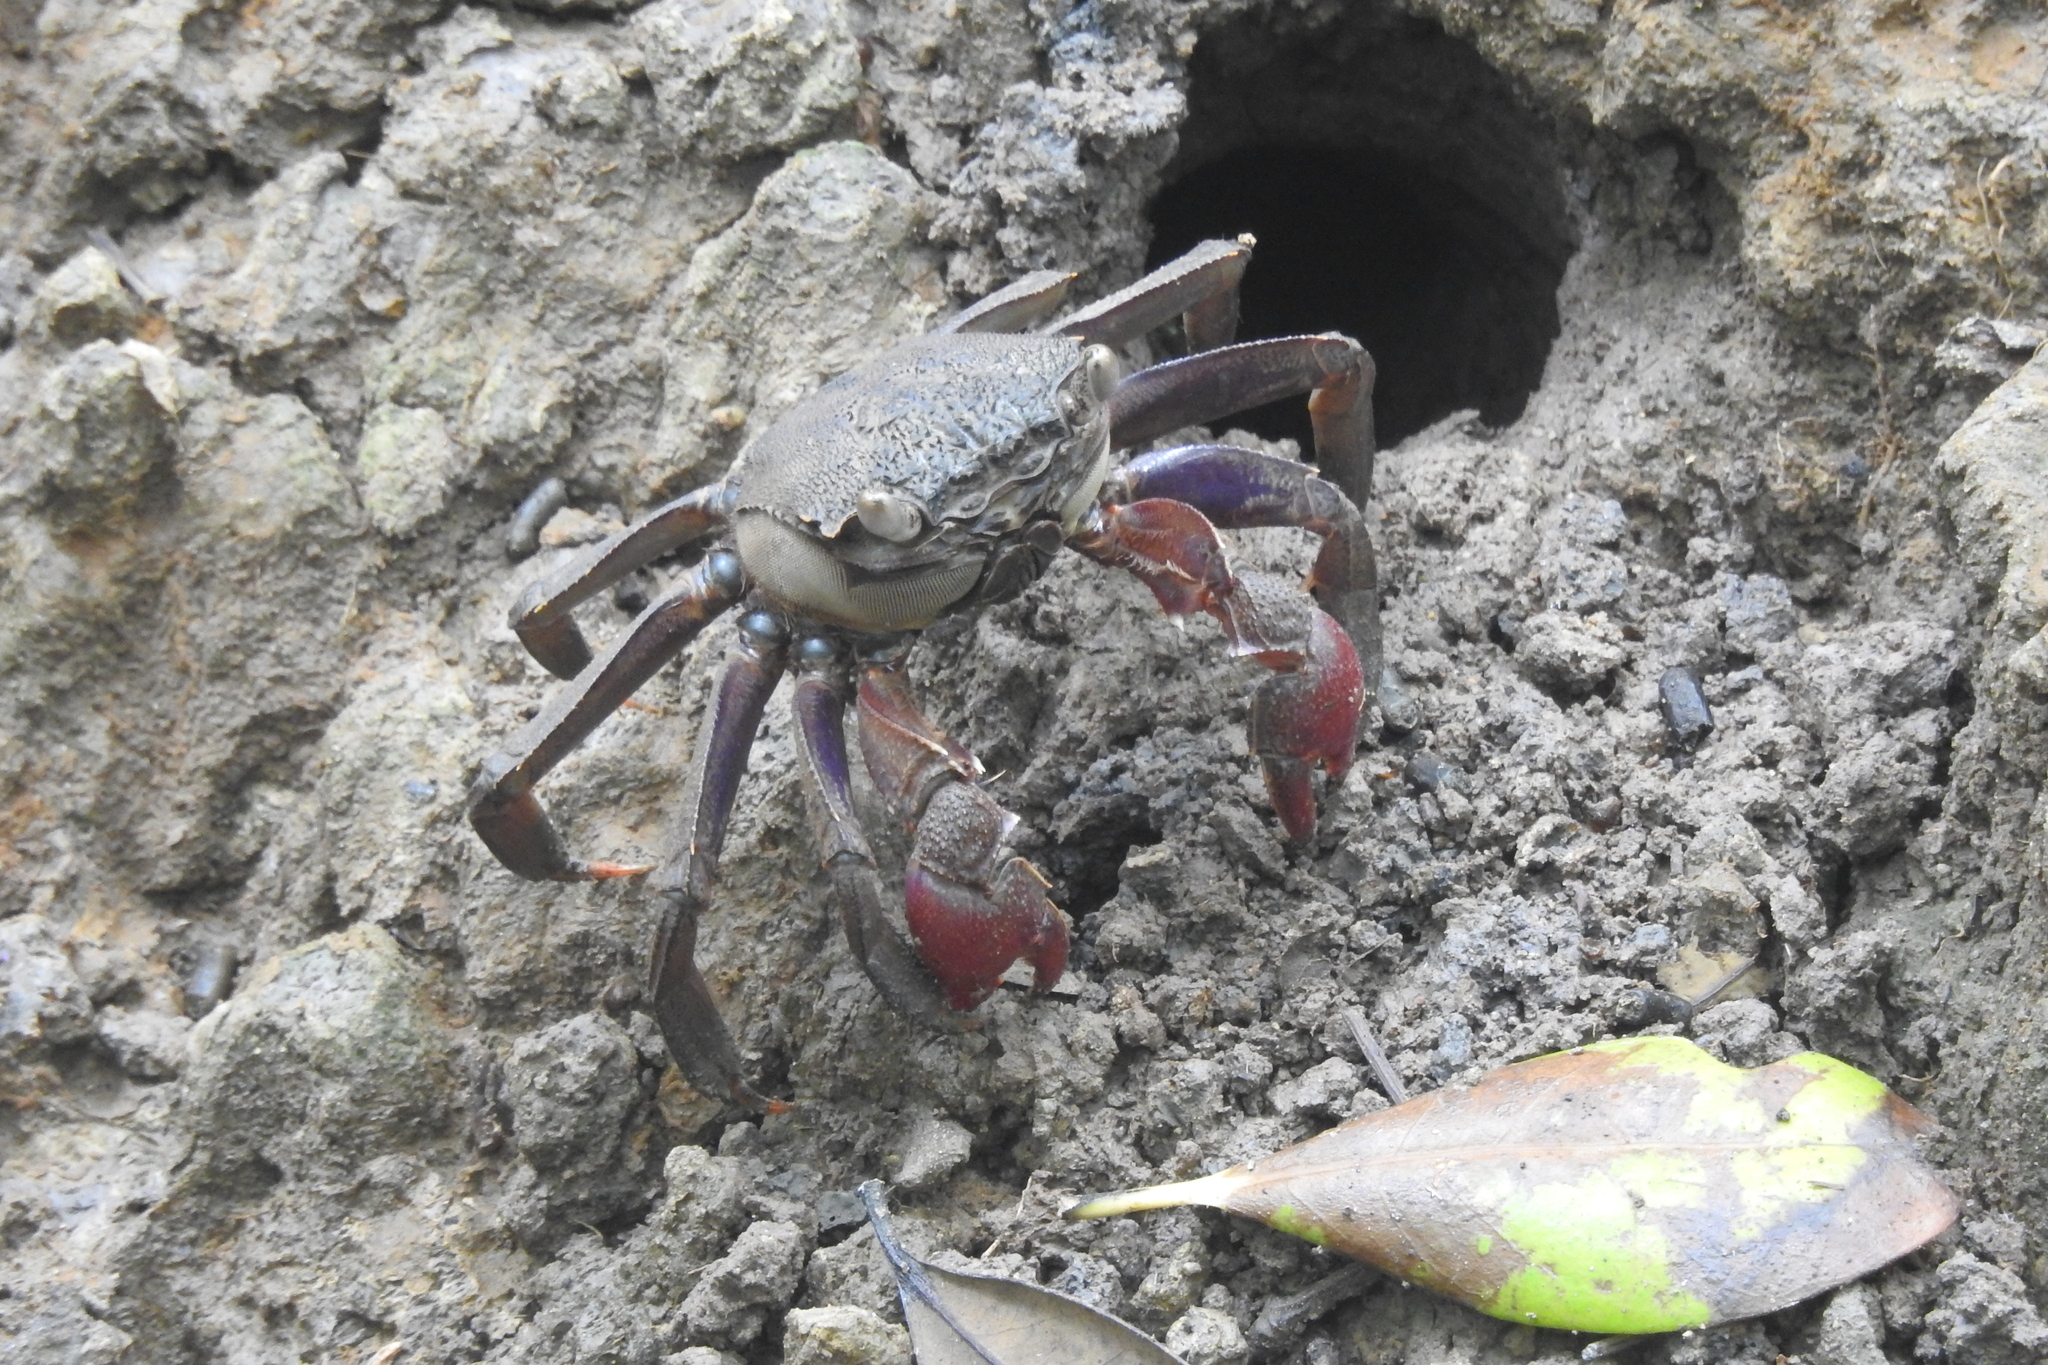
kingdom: Animalia
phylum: Arthropoda
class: Malacostraca
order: Decapoda
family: Sesarmidae
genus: Episesarma
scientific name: Episesarma chentongense
